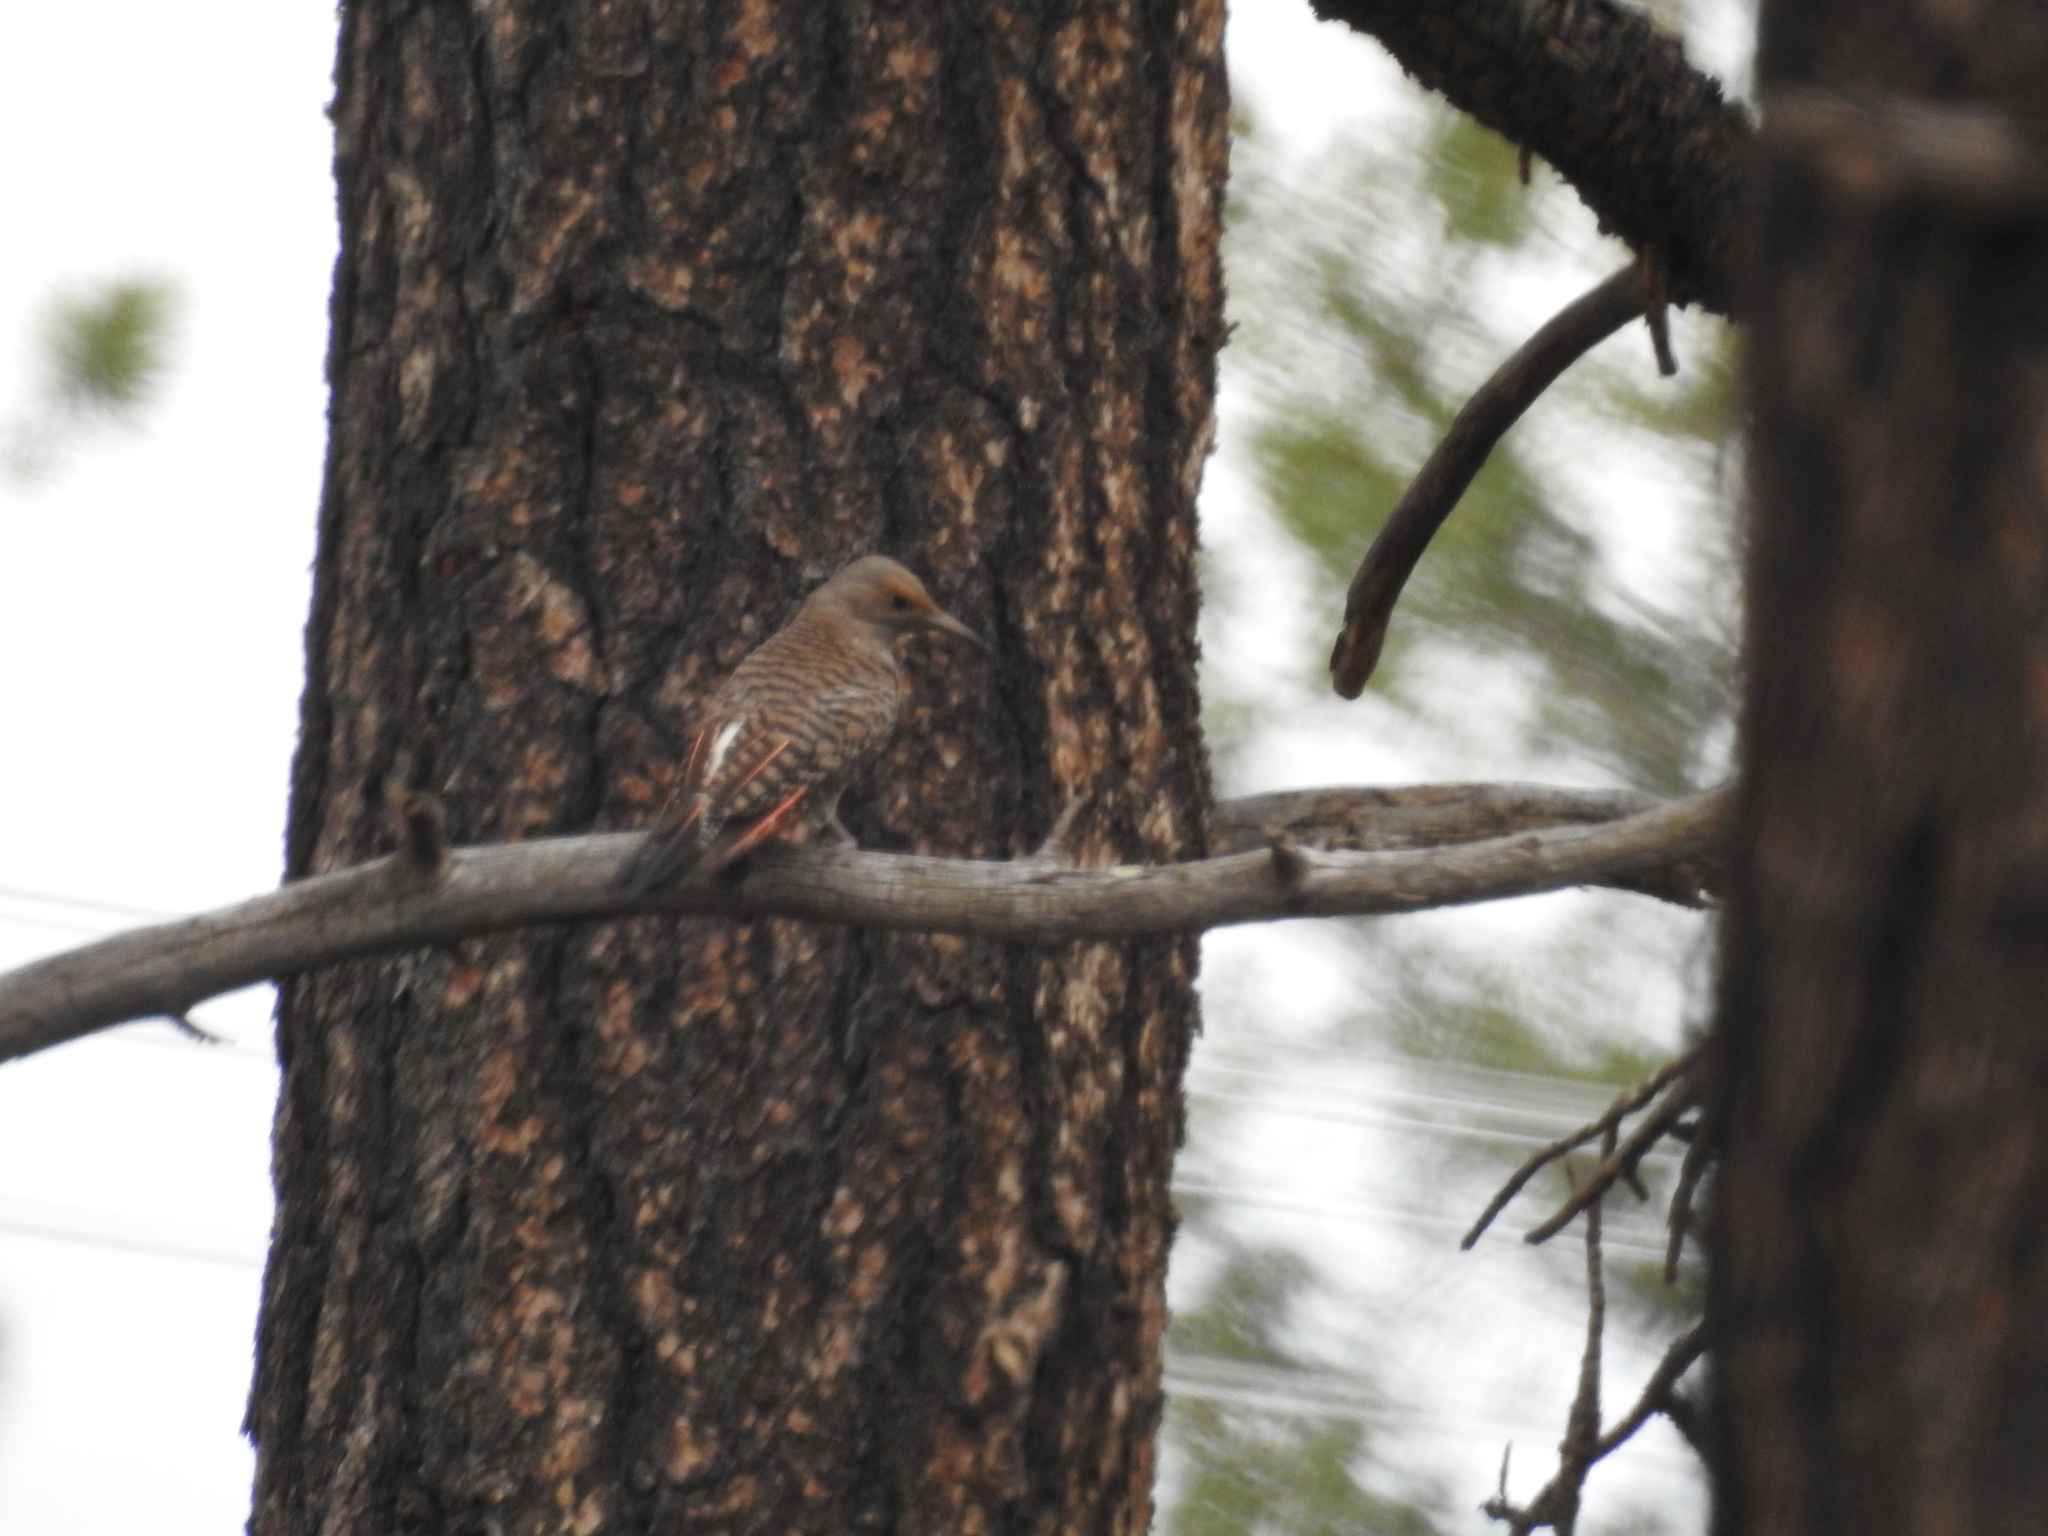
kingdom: Animalia
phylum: Chordata
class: Aves
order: Piciformes
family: Picidae
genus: Colaptes
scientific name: Colaptes auratus
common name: Northern flicker
